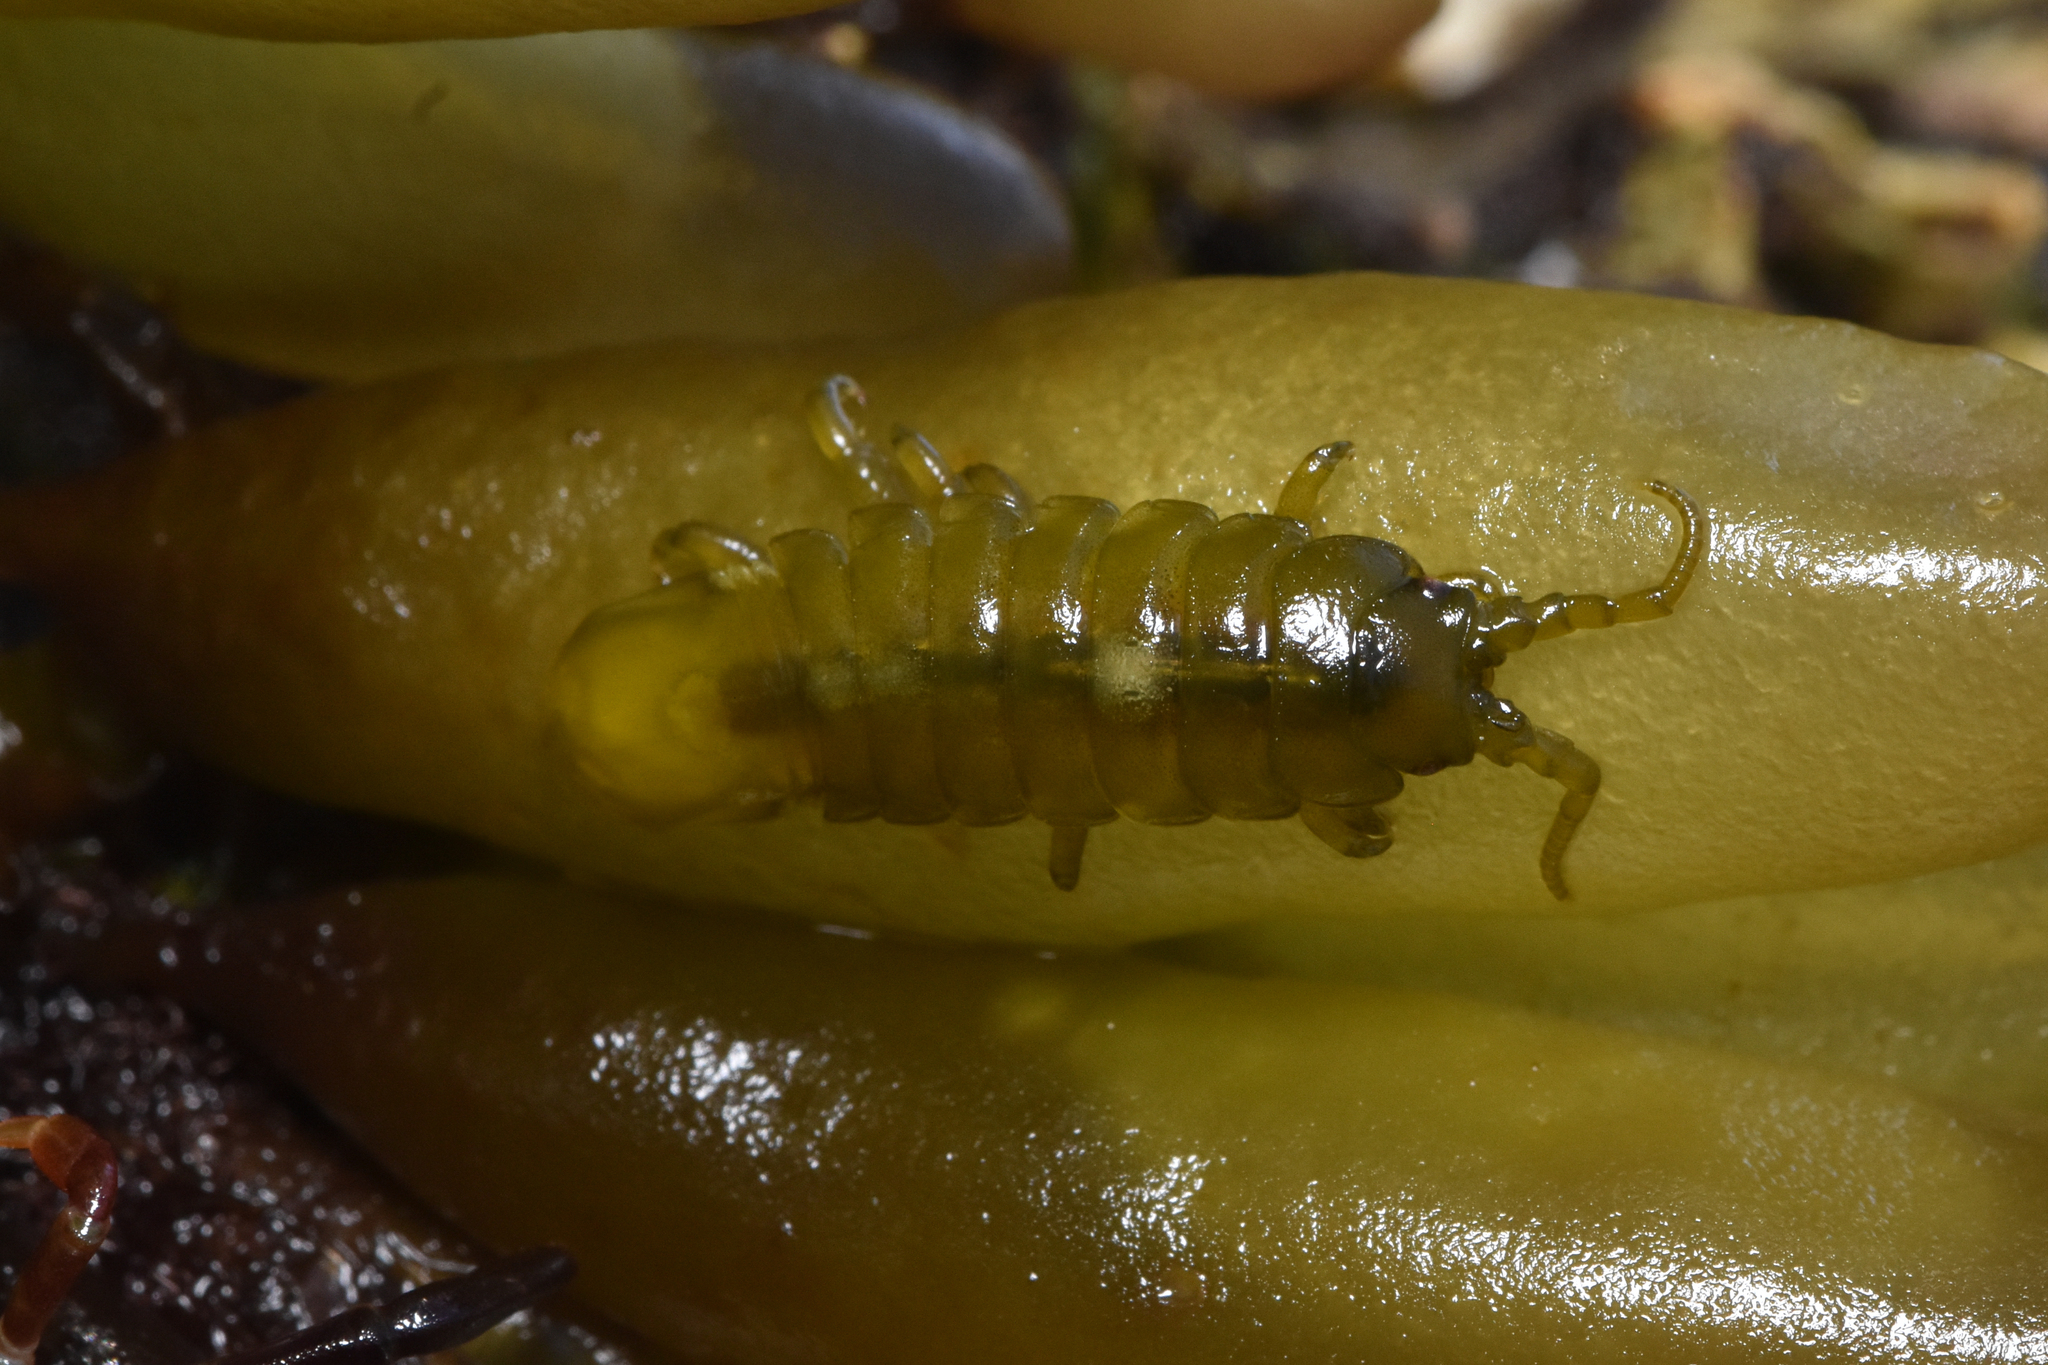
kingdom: Animalia
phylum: Arthropoda
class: Malacostraca
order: Isopoda
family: Idoteidae
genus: Pentidotea
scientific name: Pentidotea wosnesenskii
